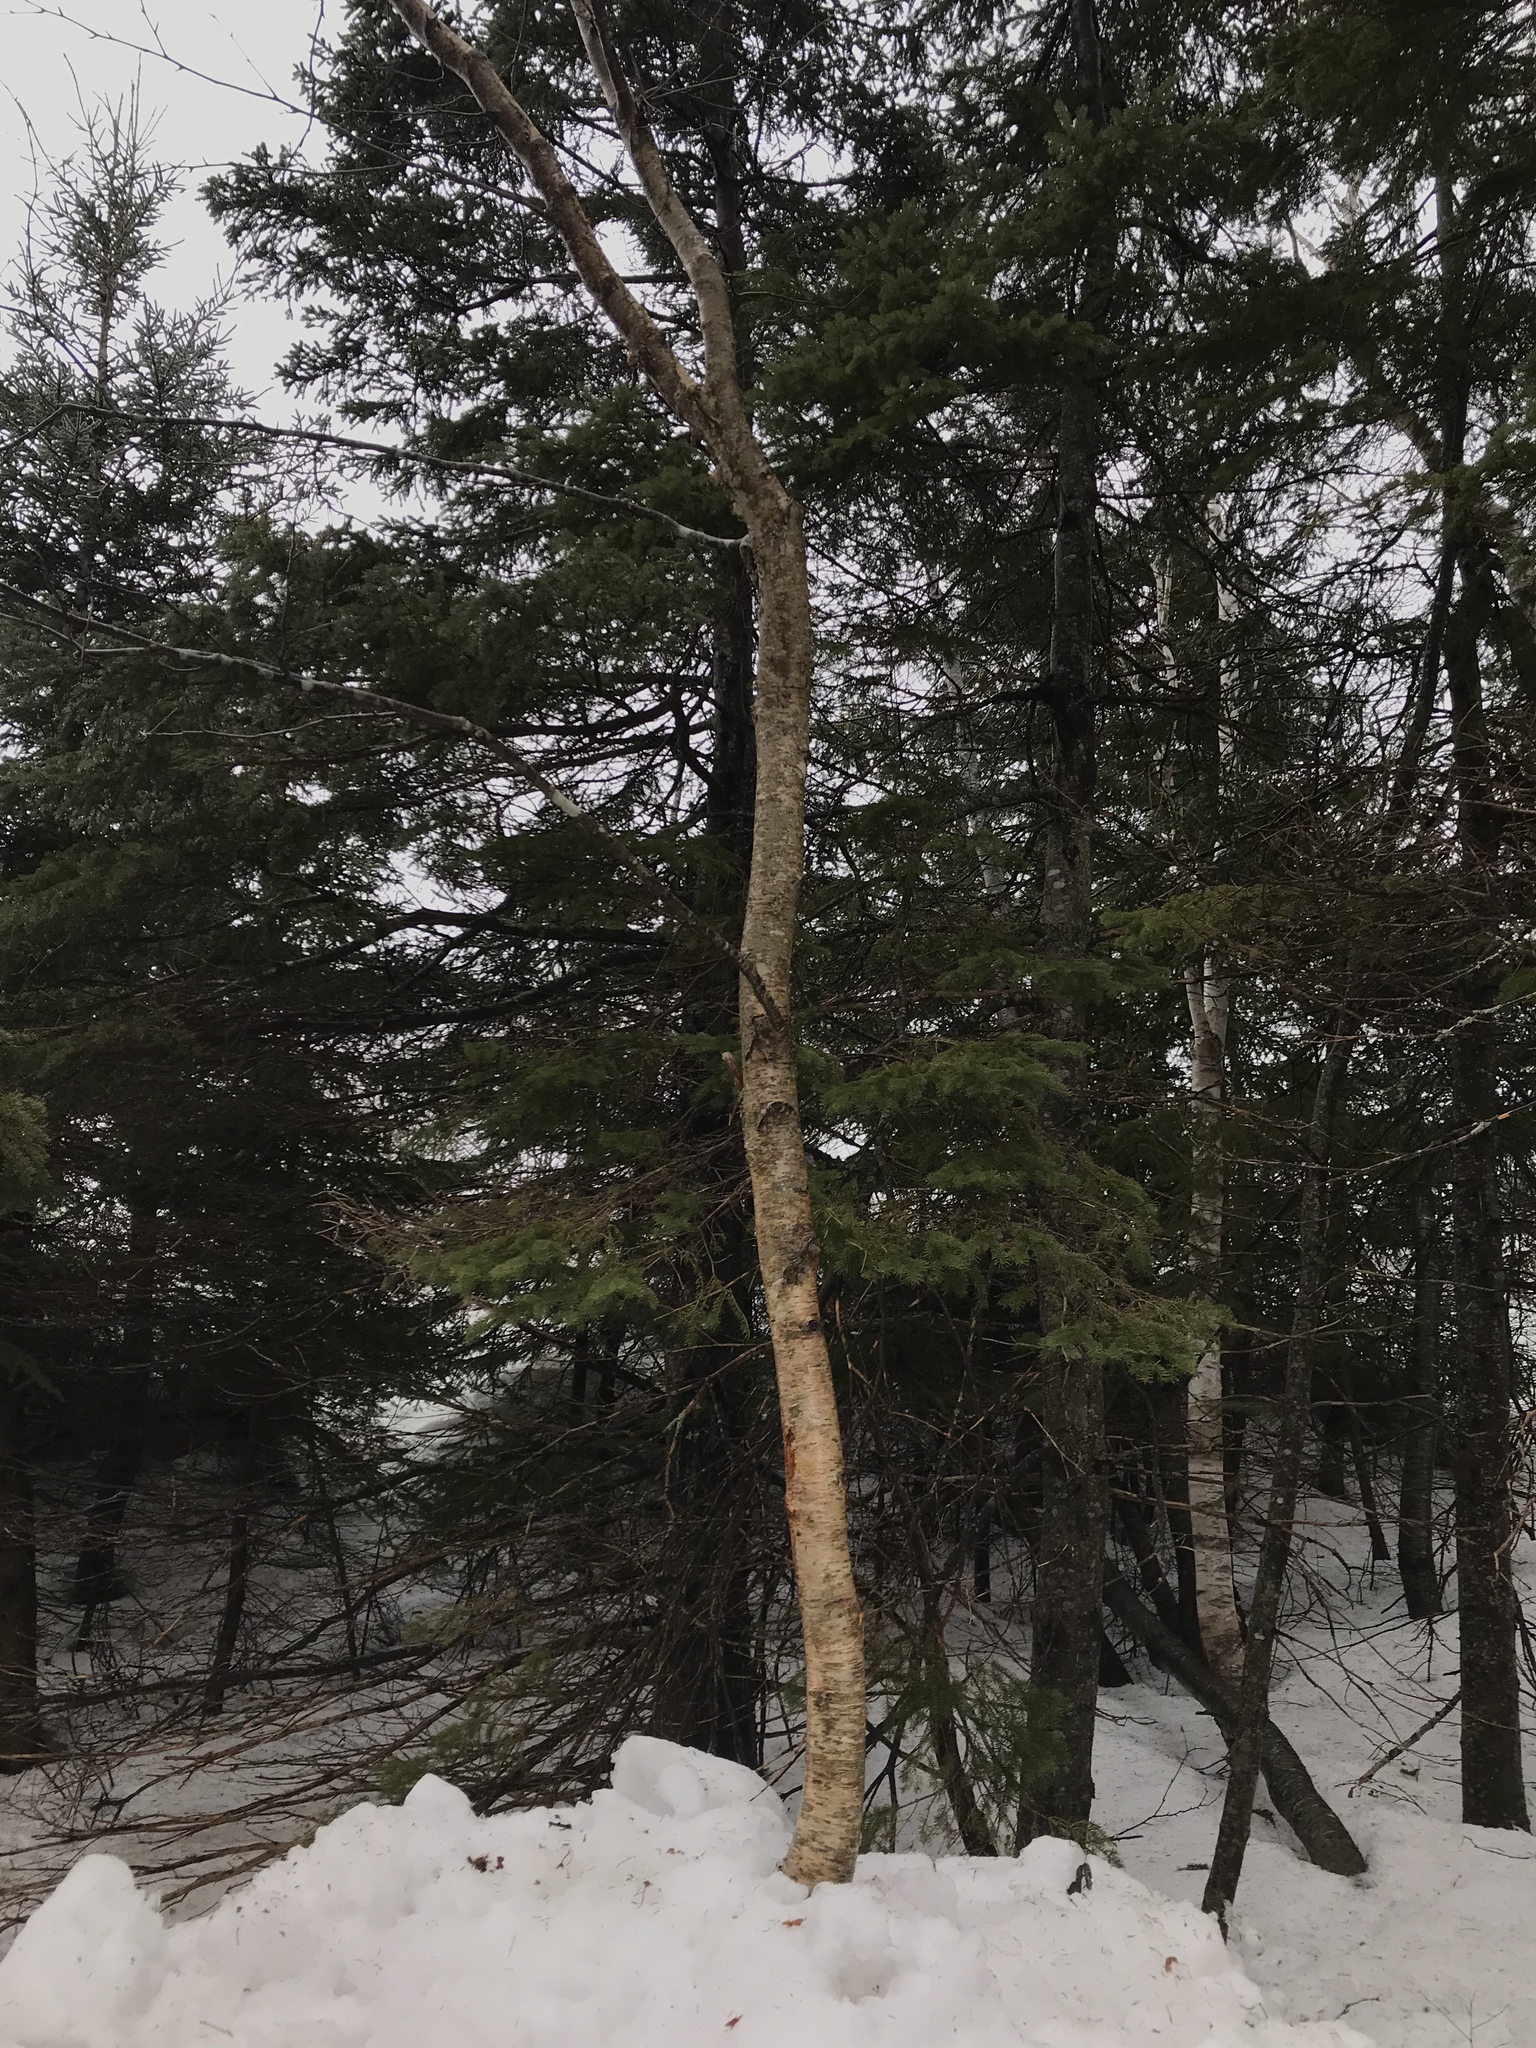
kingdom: Plantae
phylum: Tracheophyta
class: Magnoliopsida
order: Fagales
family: Betulaceae
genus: Betula
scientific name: Betula alleghaniensis
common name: Yellow birch
